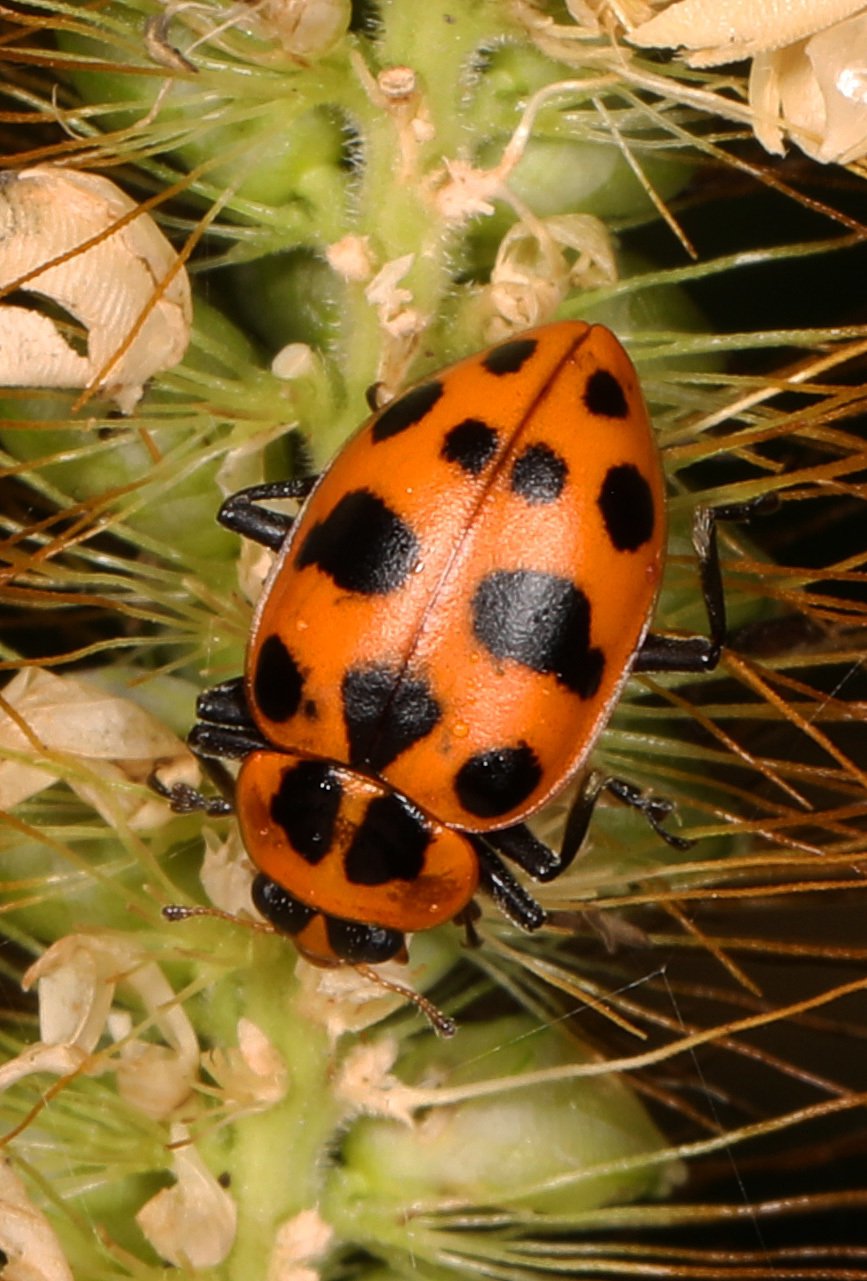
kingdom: Animalia
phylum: Arthropoda
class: Insecta
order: Coleoptera
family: Coccinellidae
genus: Coleomegilla
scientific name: Coleomegilla maculata
